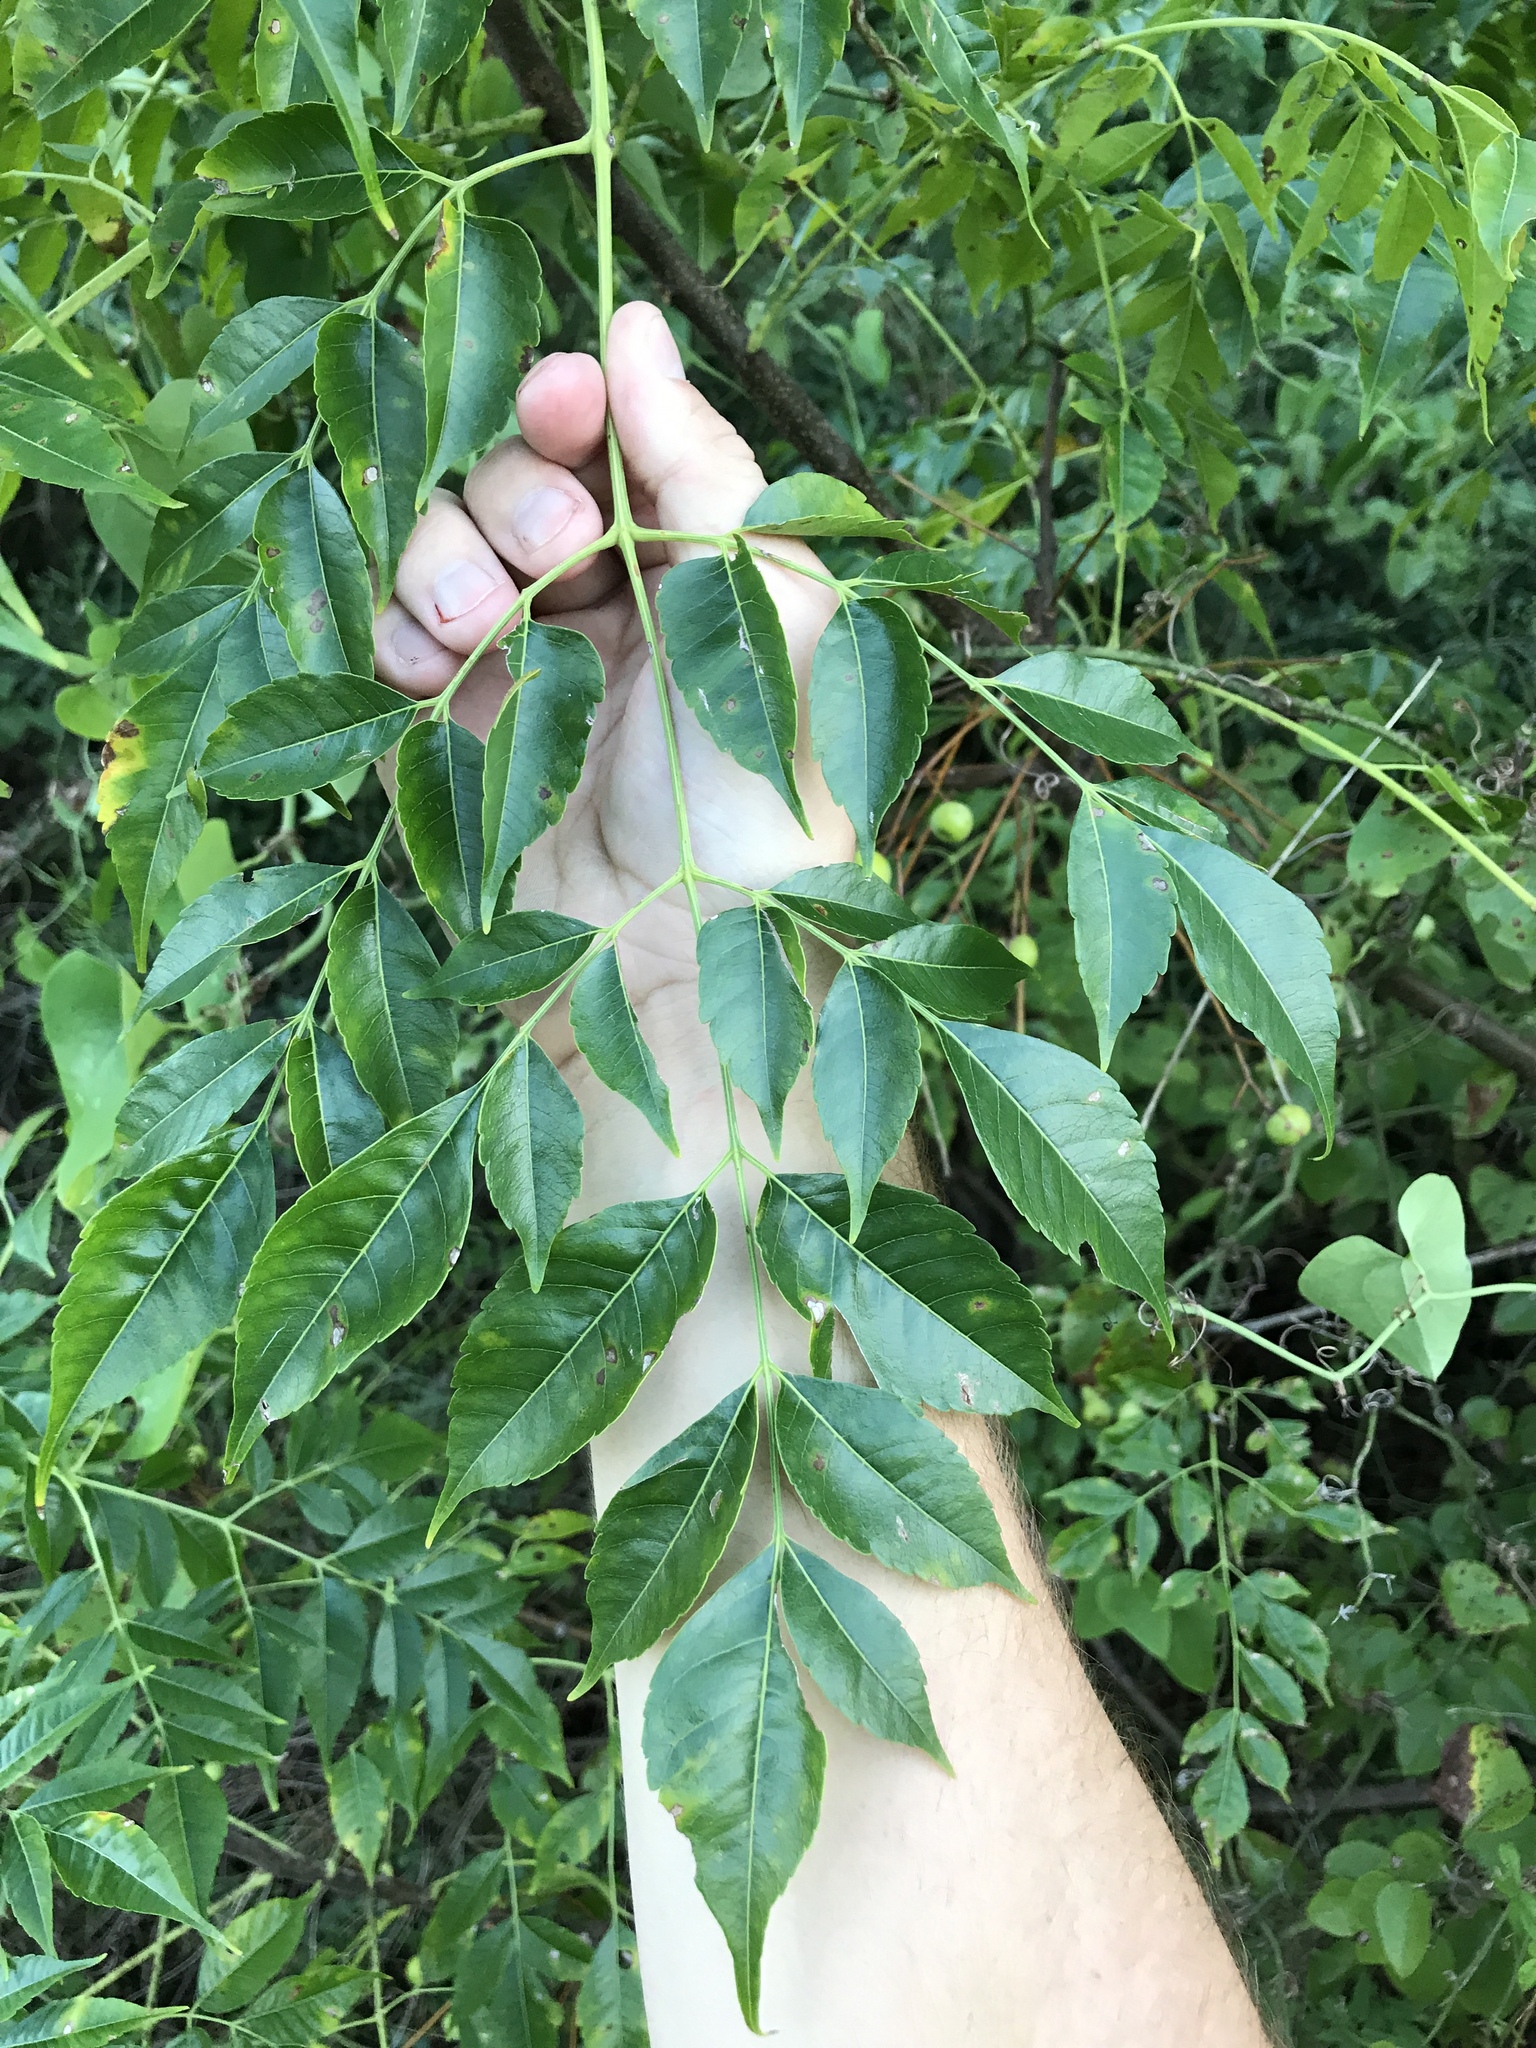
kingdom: Plantae
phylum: Tracheophyta
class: Magnoliopsida
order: Sapindales
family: Meliaceae
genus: Melia
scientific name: Melia azedarach
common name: Chinaberrytree
